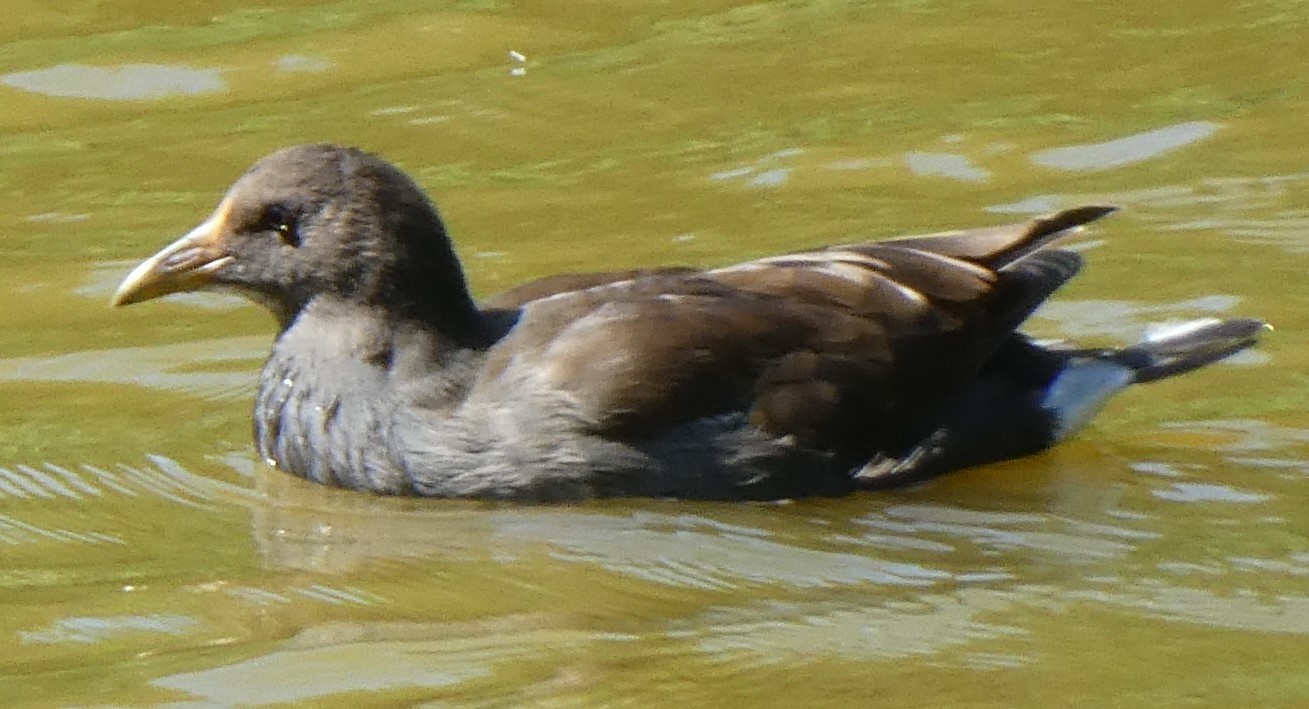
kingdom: Animalia
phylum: Chordata
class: Aves
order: Gruiformes
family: Rallidae
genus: Gallinula
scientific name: Gallinula chloropus
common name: Common moorhen
